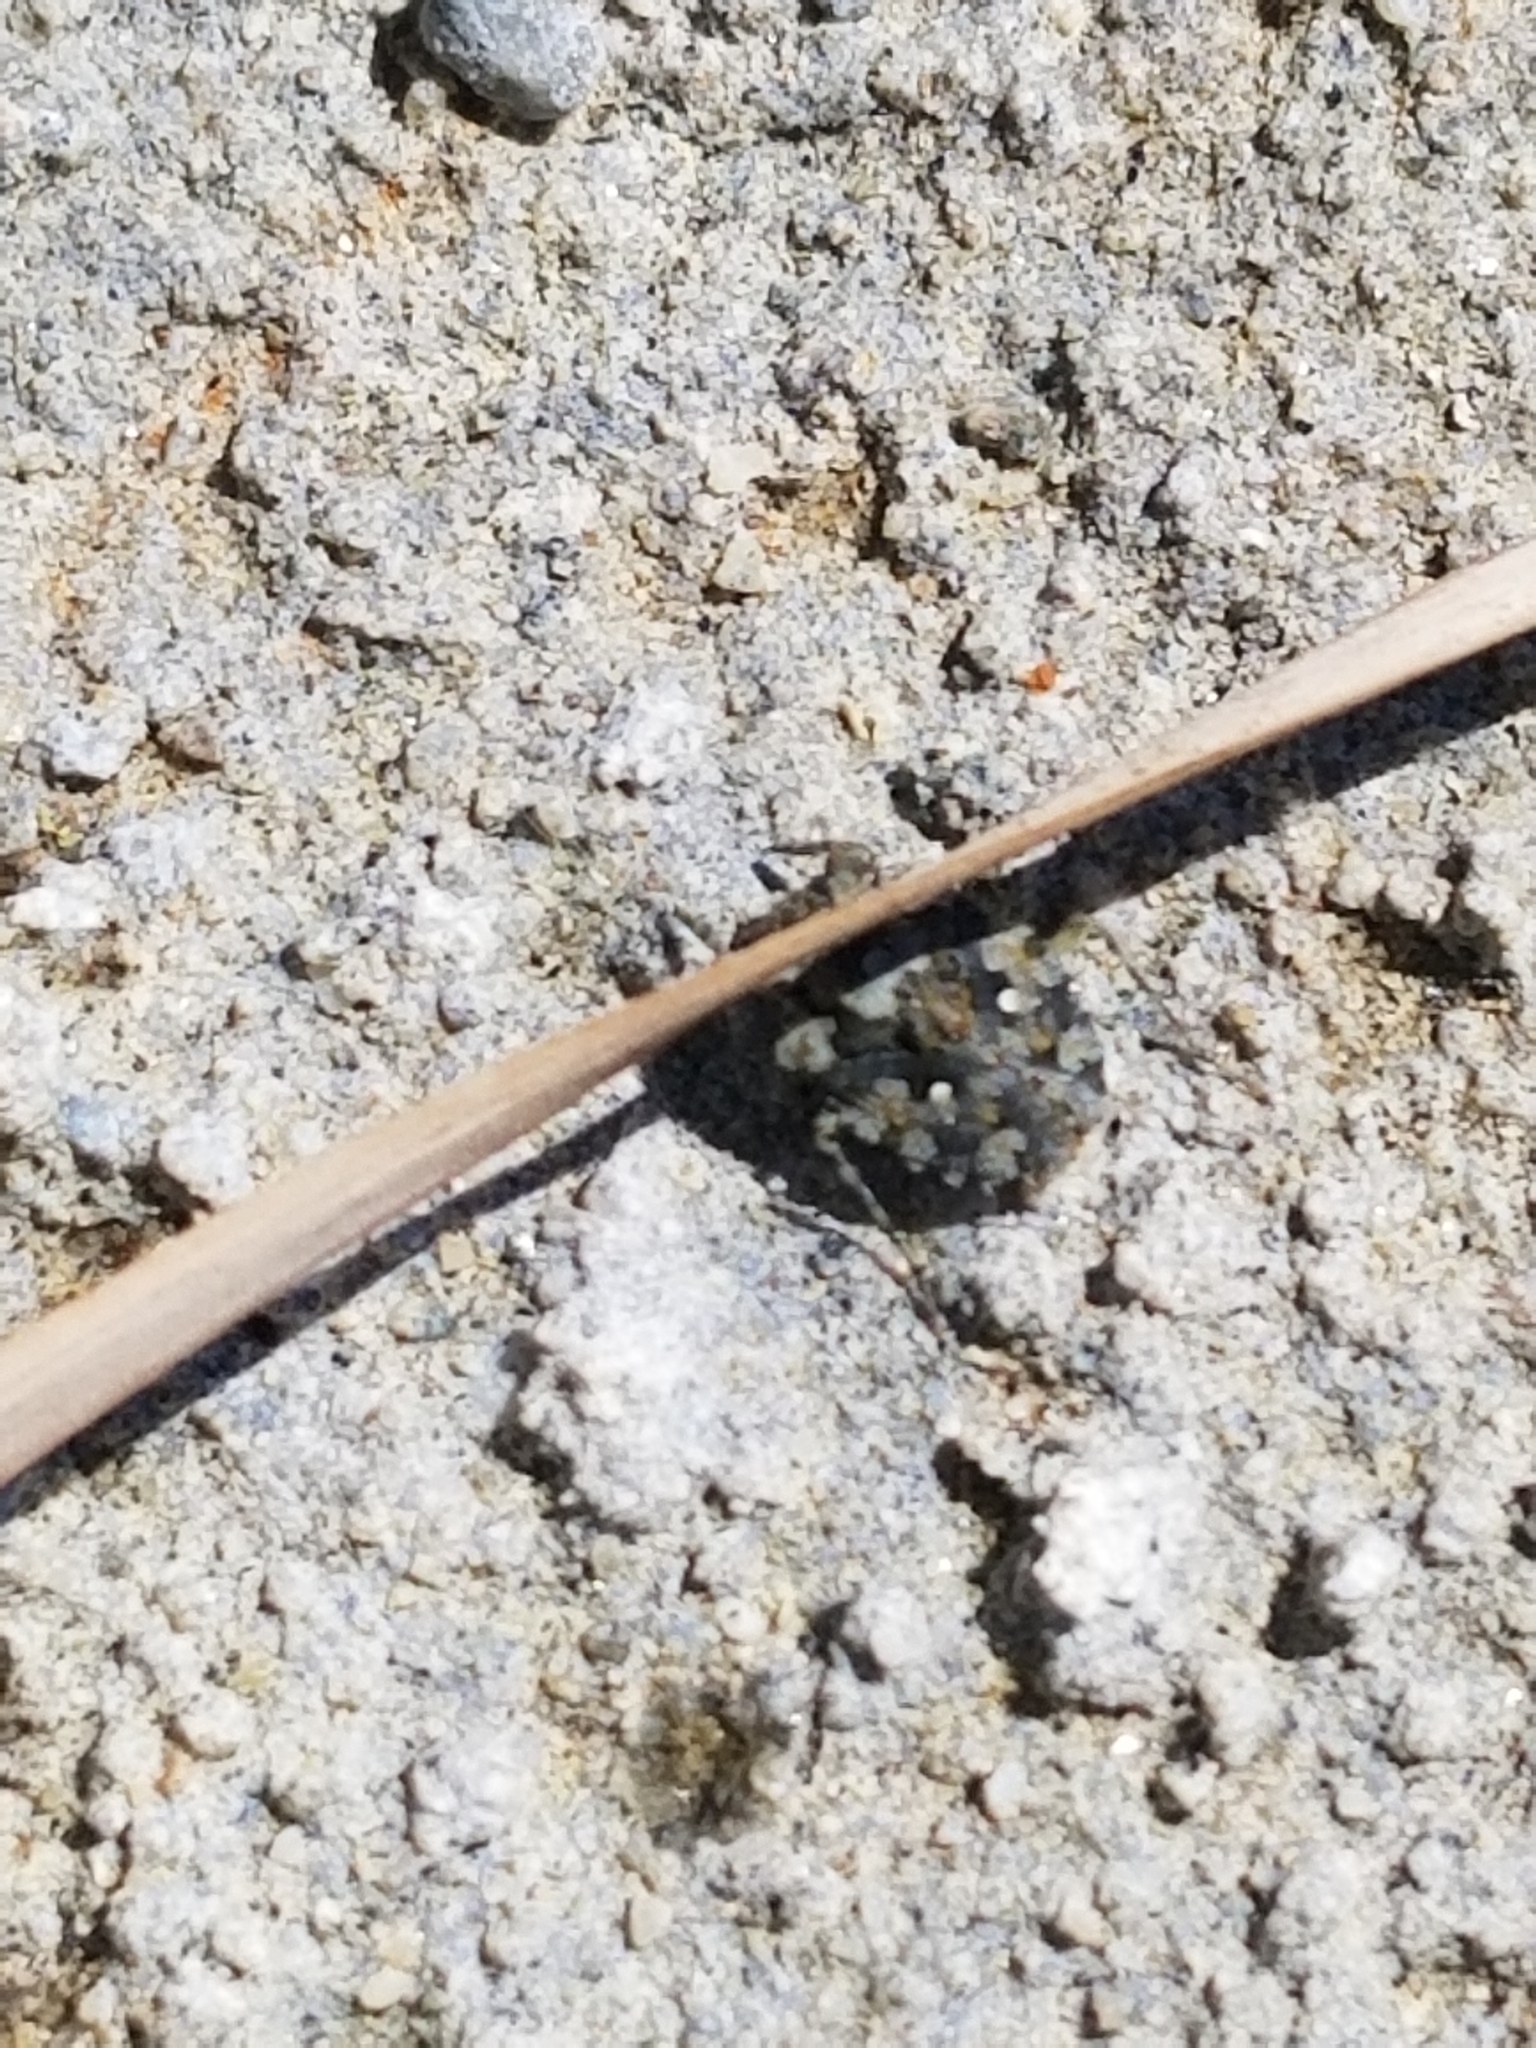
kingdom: Animalia
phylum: Arthropoda
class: Insecta
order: Hemiptera
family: Gelastocoridae
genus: Gelastocoris
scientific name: Gelastocoris oculatus
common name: Toad bug
